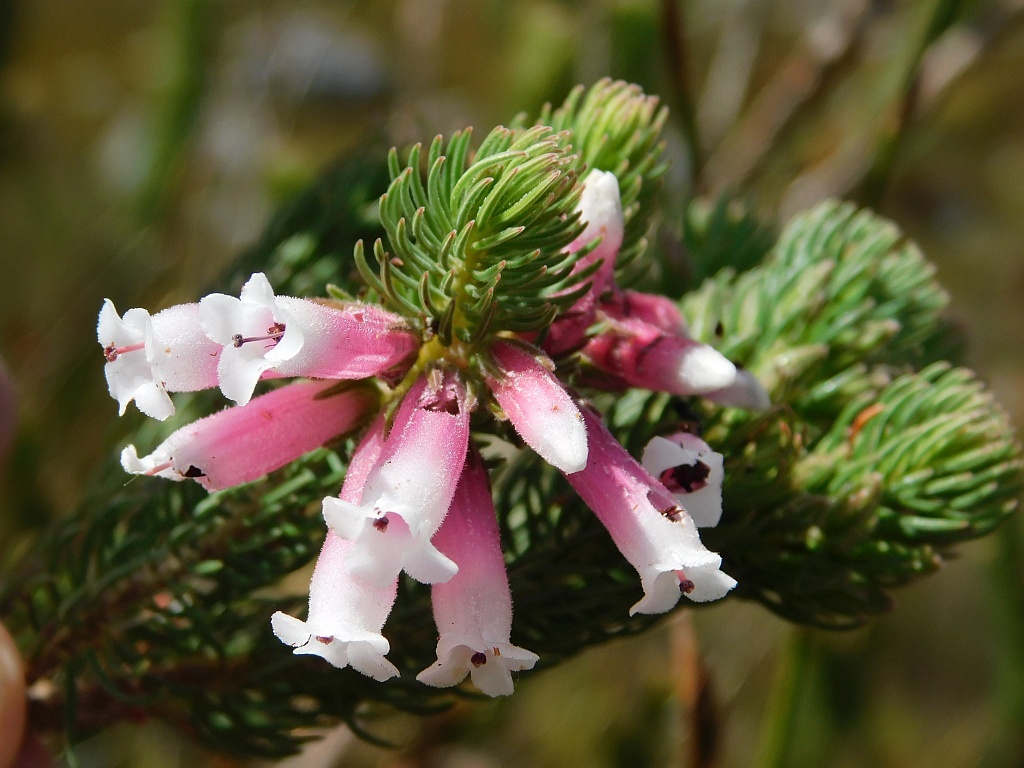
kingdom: Plantae
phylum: Tracheophyta
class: Magnoliopsida
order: Ericales
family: Ericaceae
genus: Erica
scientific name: Erica viscaria
